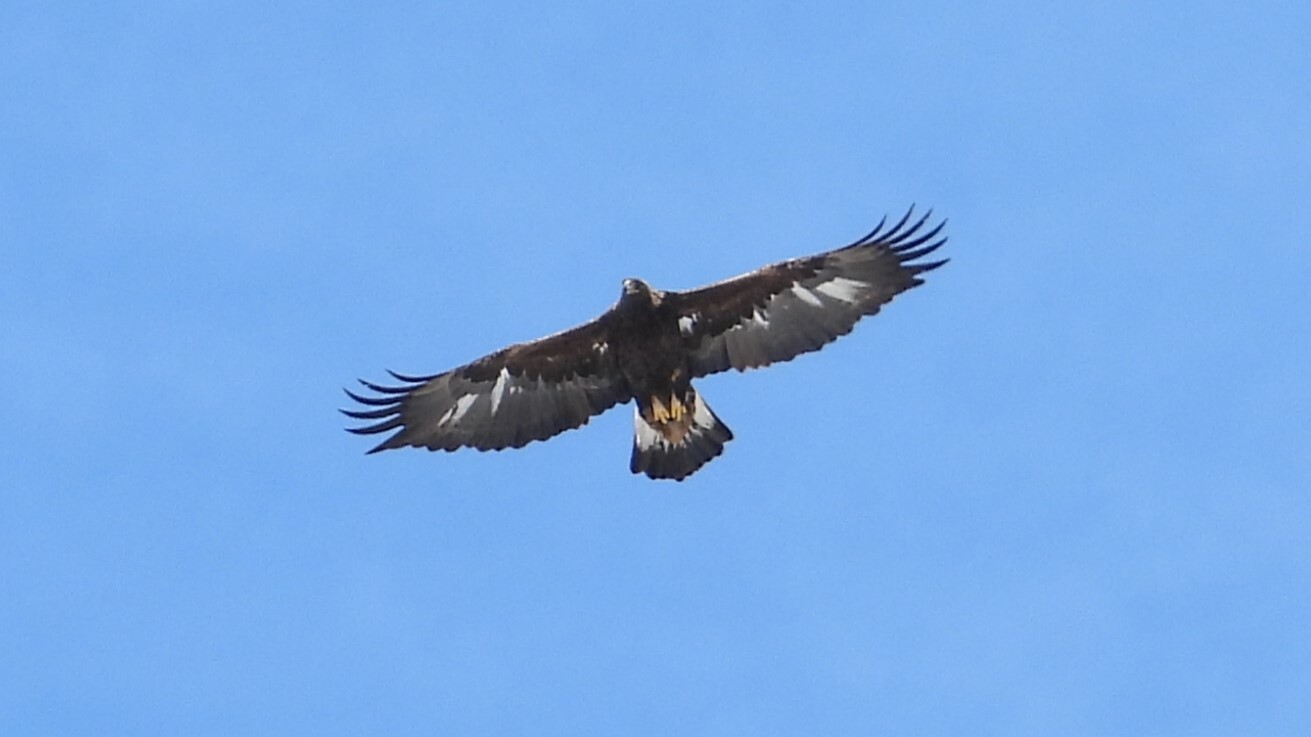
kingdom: Animalia
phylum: Chordata
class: Aves
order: Accipitriformes
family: Accipitridae
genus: Aquila
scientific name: Aquila chrysaetos
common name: Golden eagle
